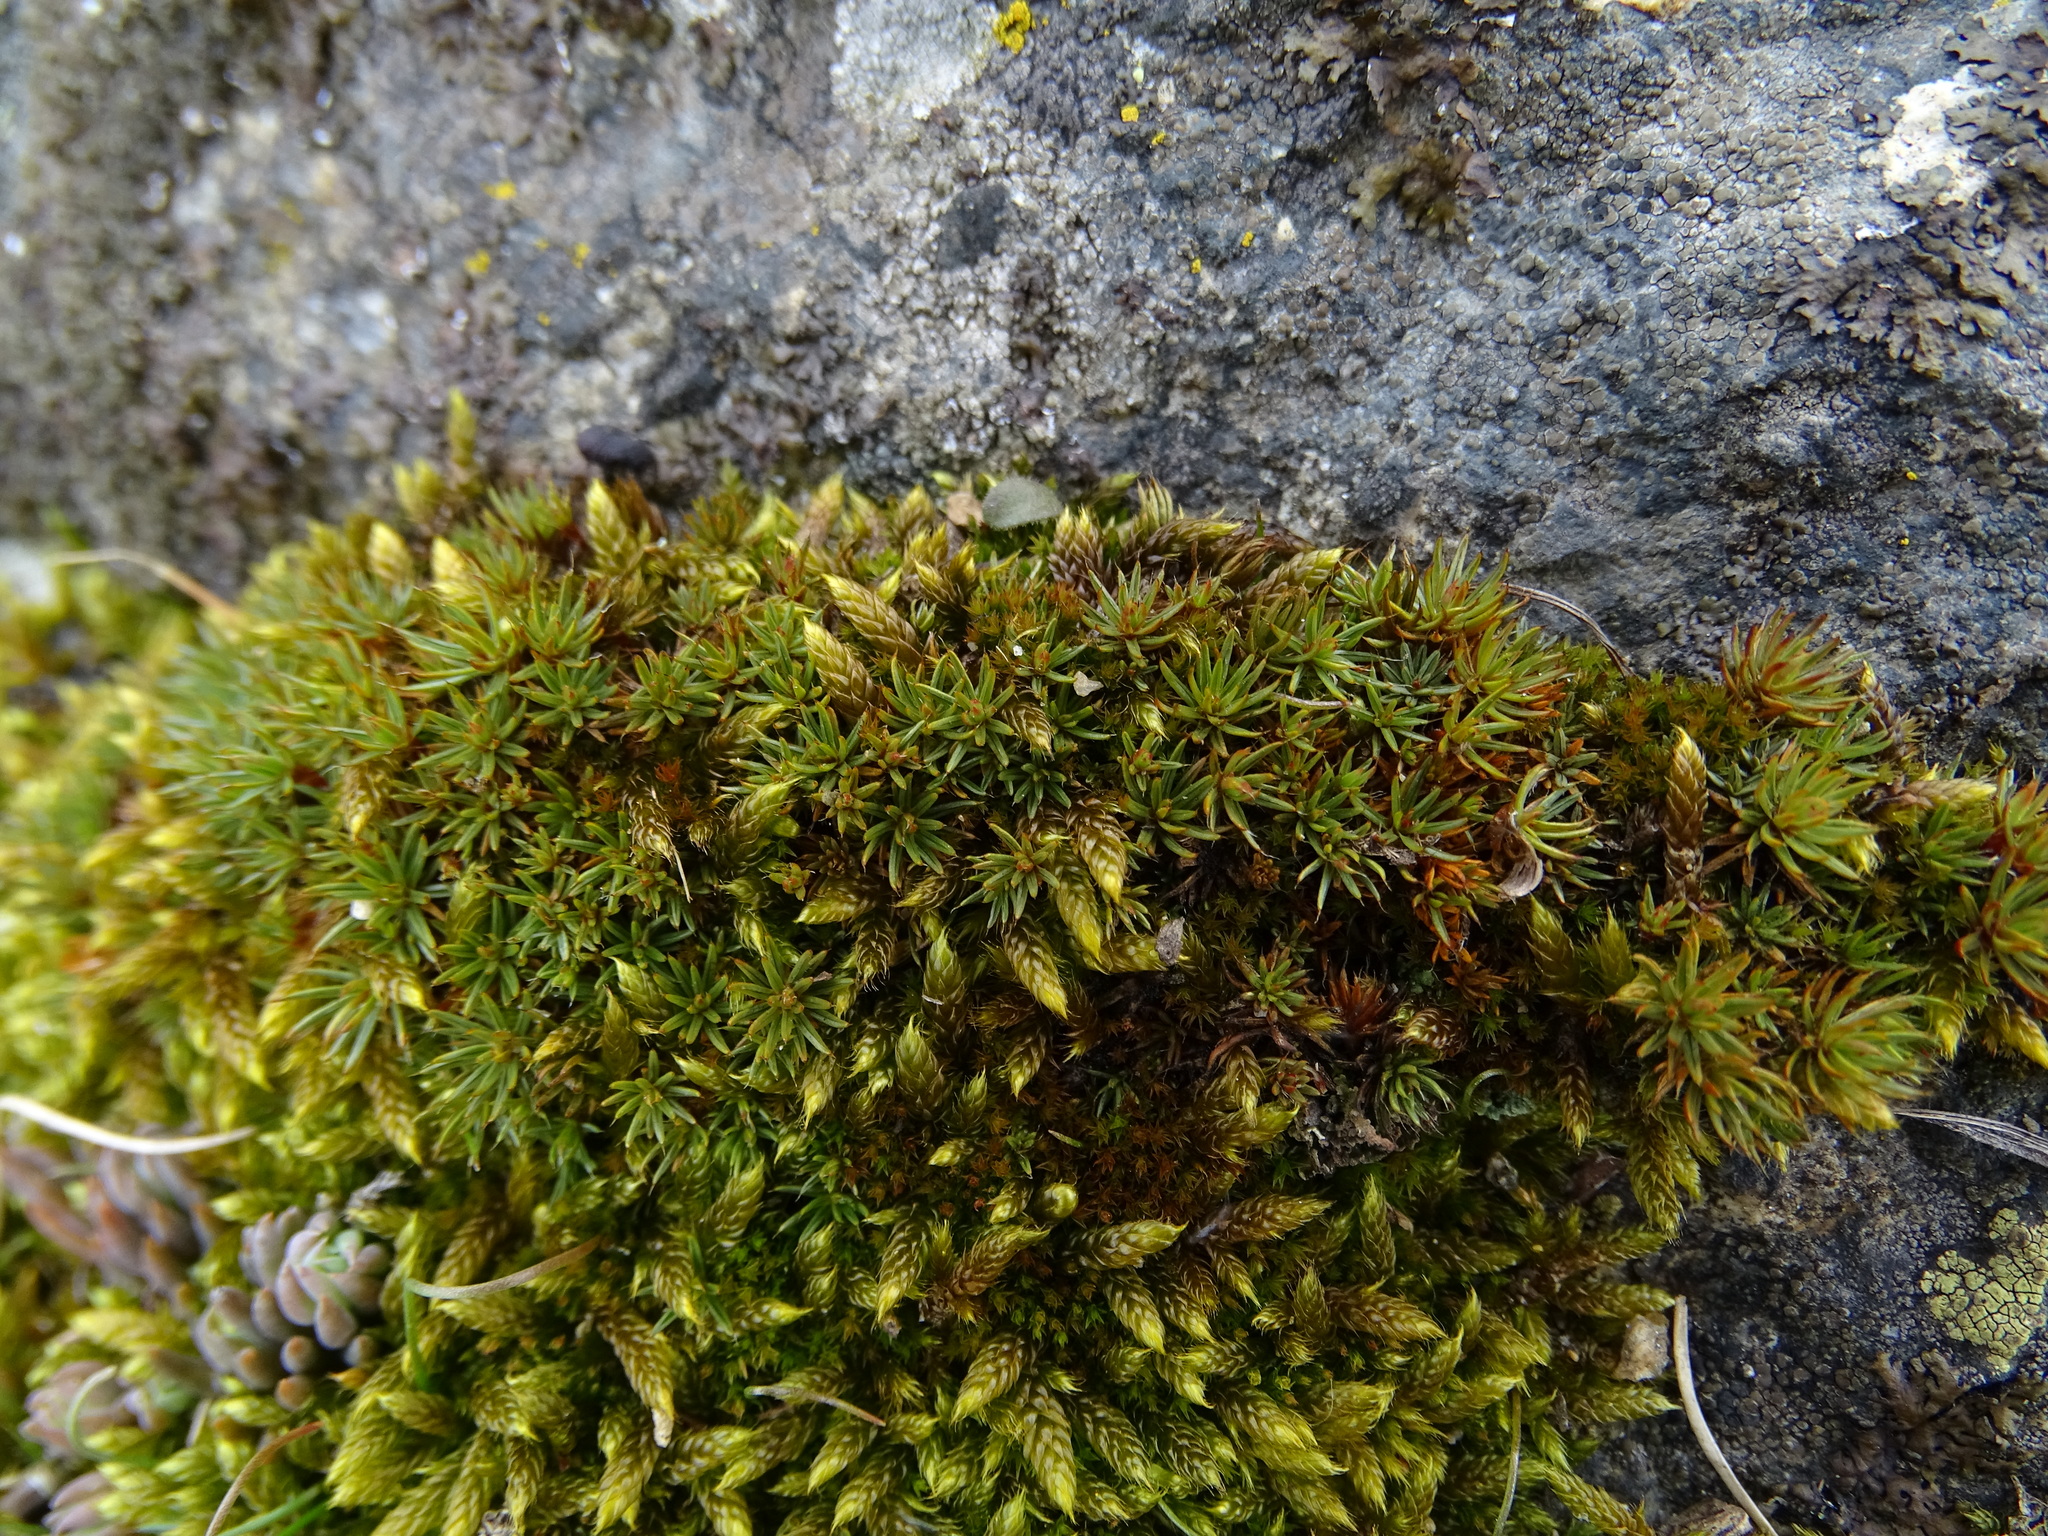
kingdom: Plantae
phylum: Bryophyta
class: Polytrichopsida
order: Polytrichales
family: Polytrichaceae
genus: Polytrichum
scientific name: Polytrichum piliferum
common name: Bristly haircap
